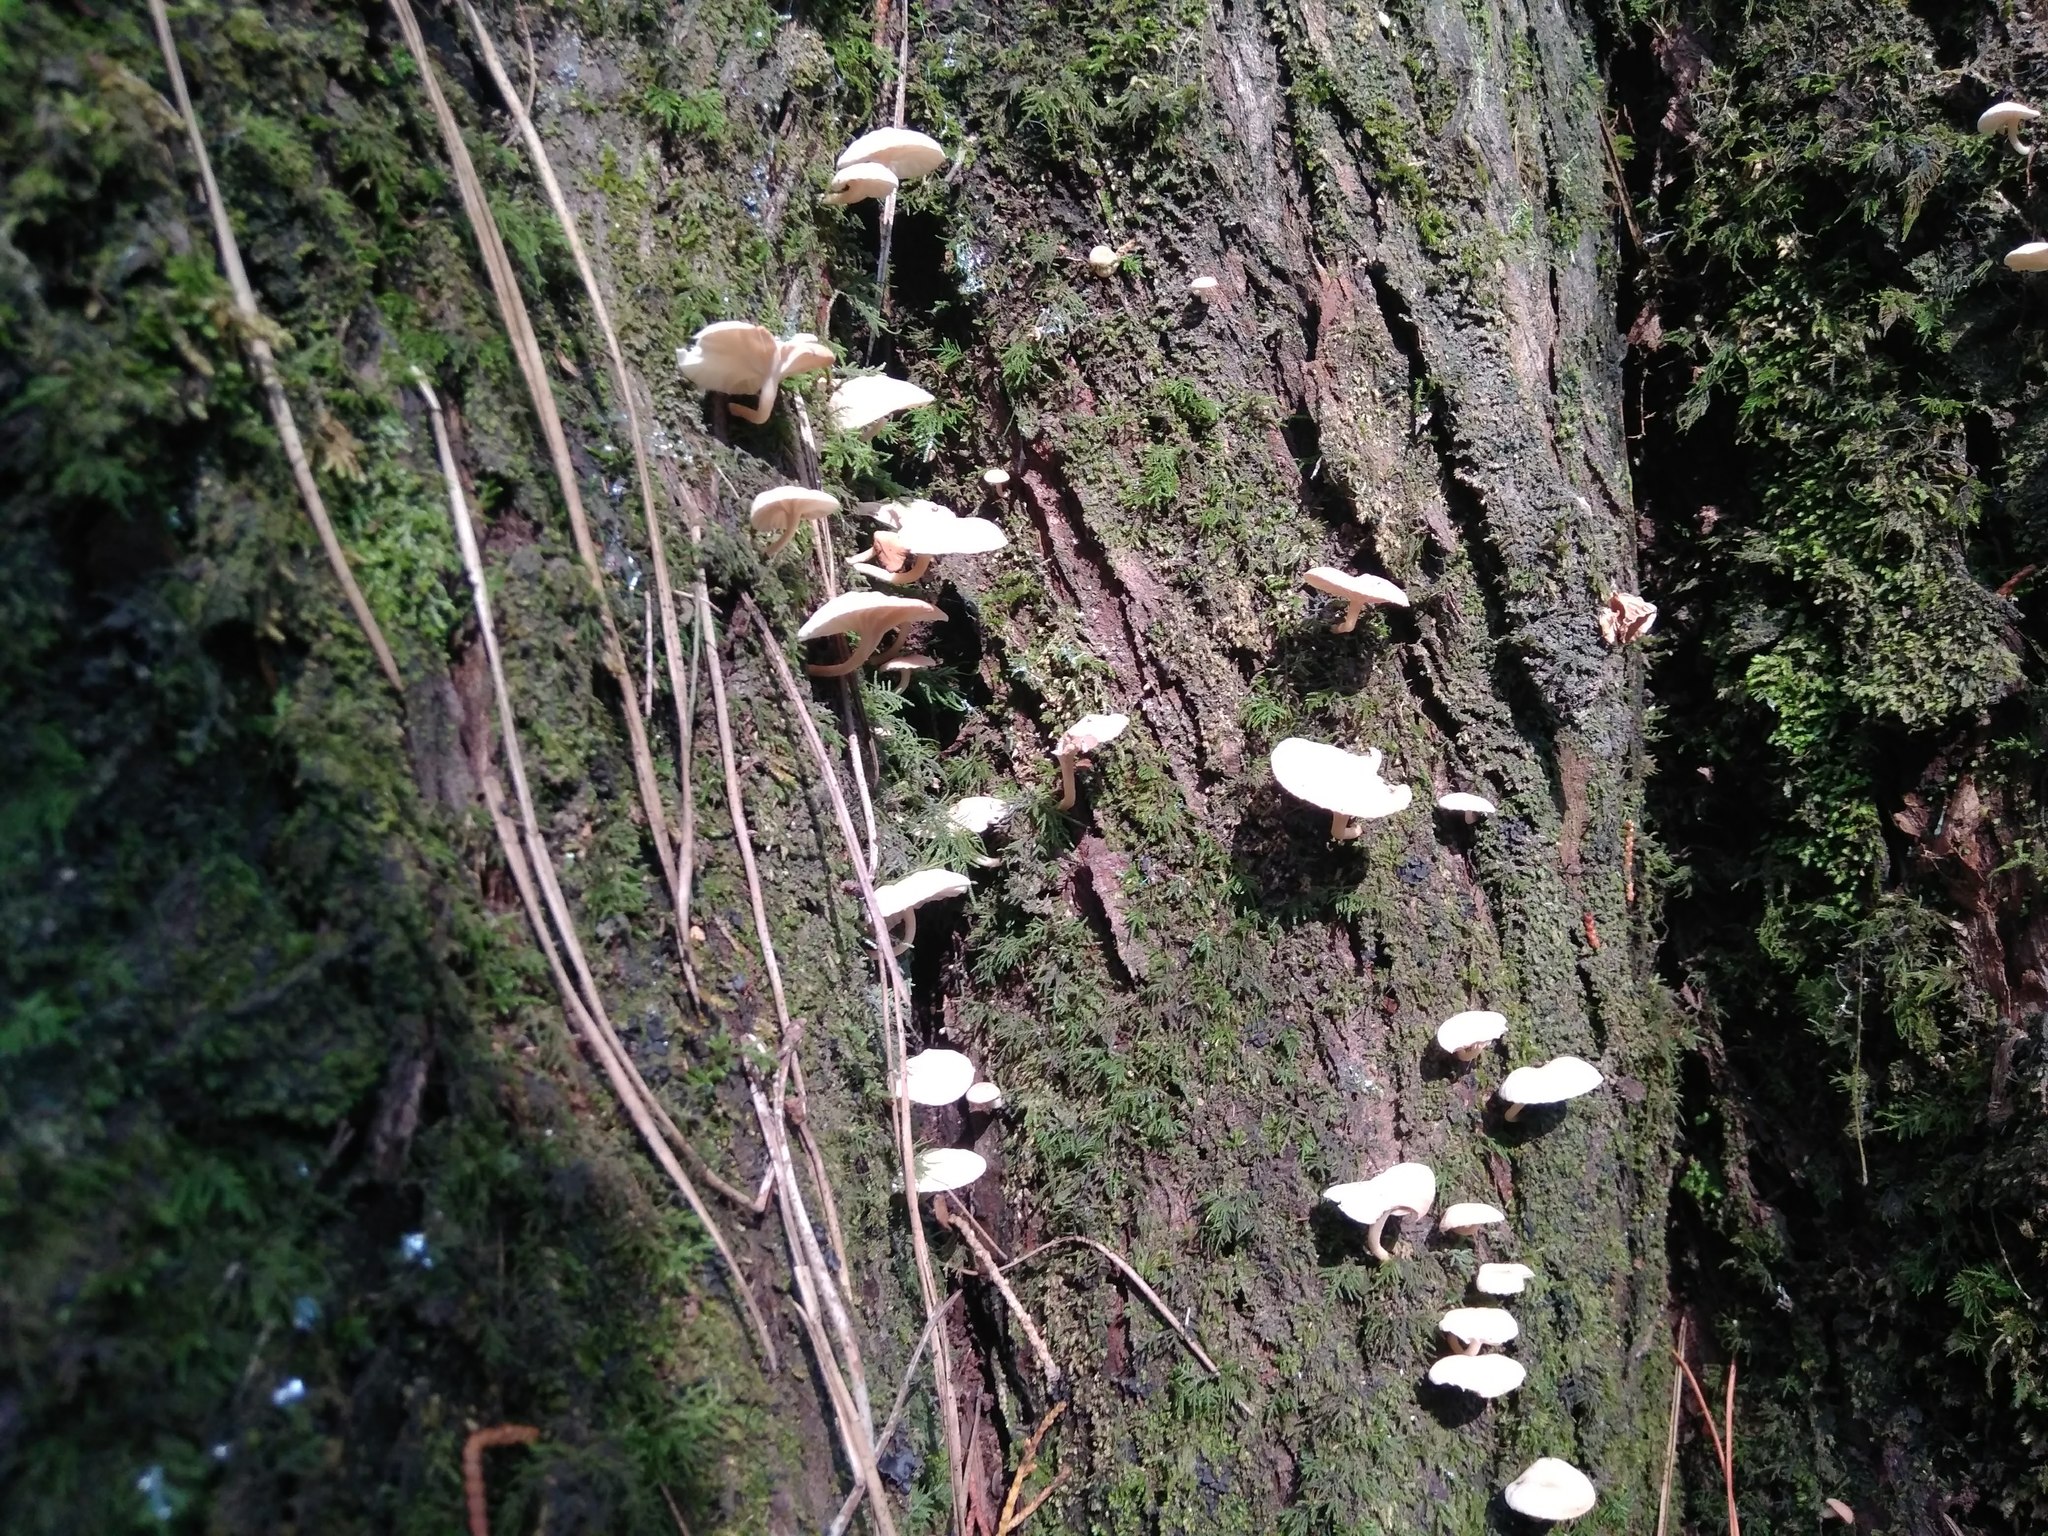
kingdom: Fungi
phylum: Basidiomycota
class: Agaricomycetes
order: Agaricales
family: Omphalotaceae
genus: Marasmiellus
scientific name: Marasmiellus alliiodorus
